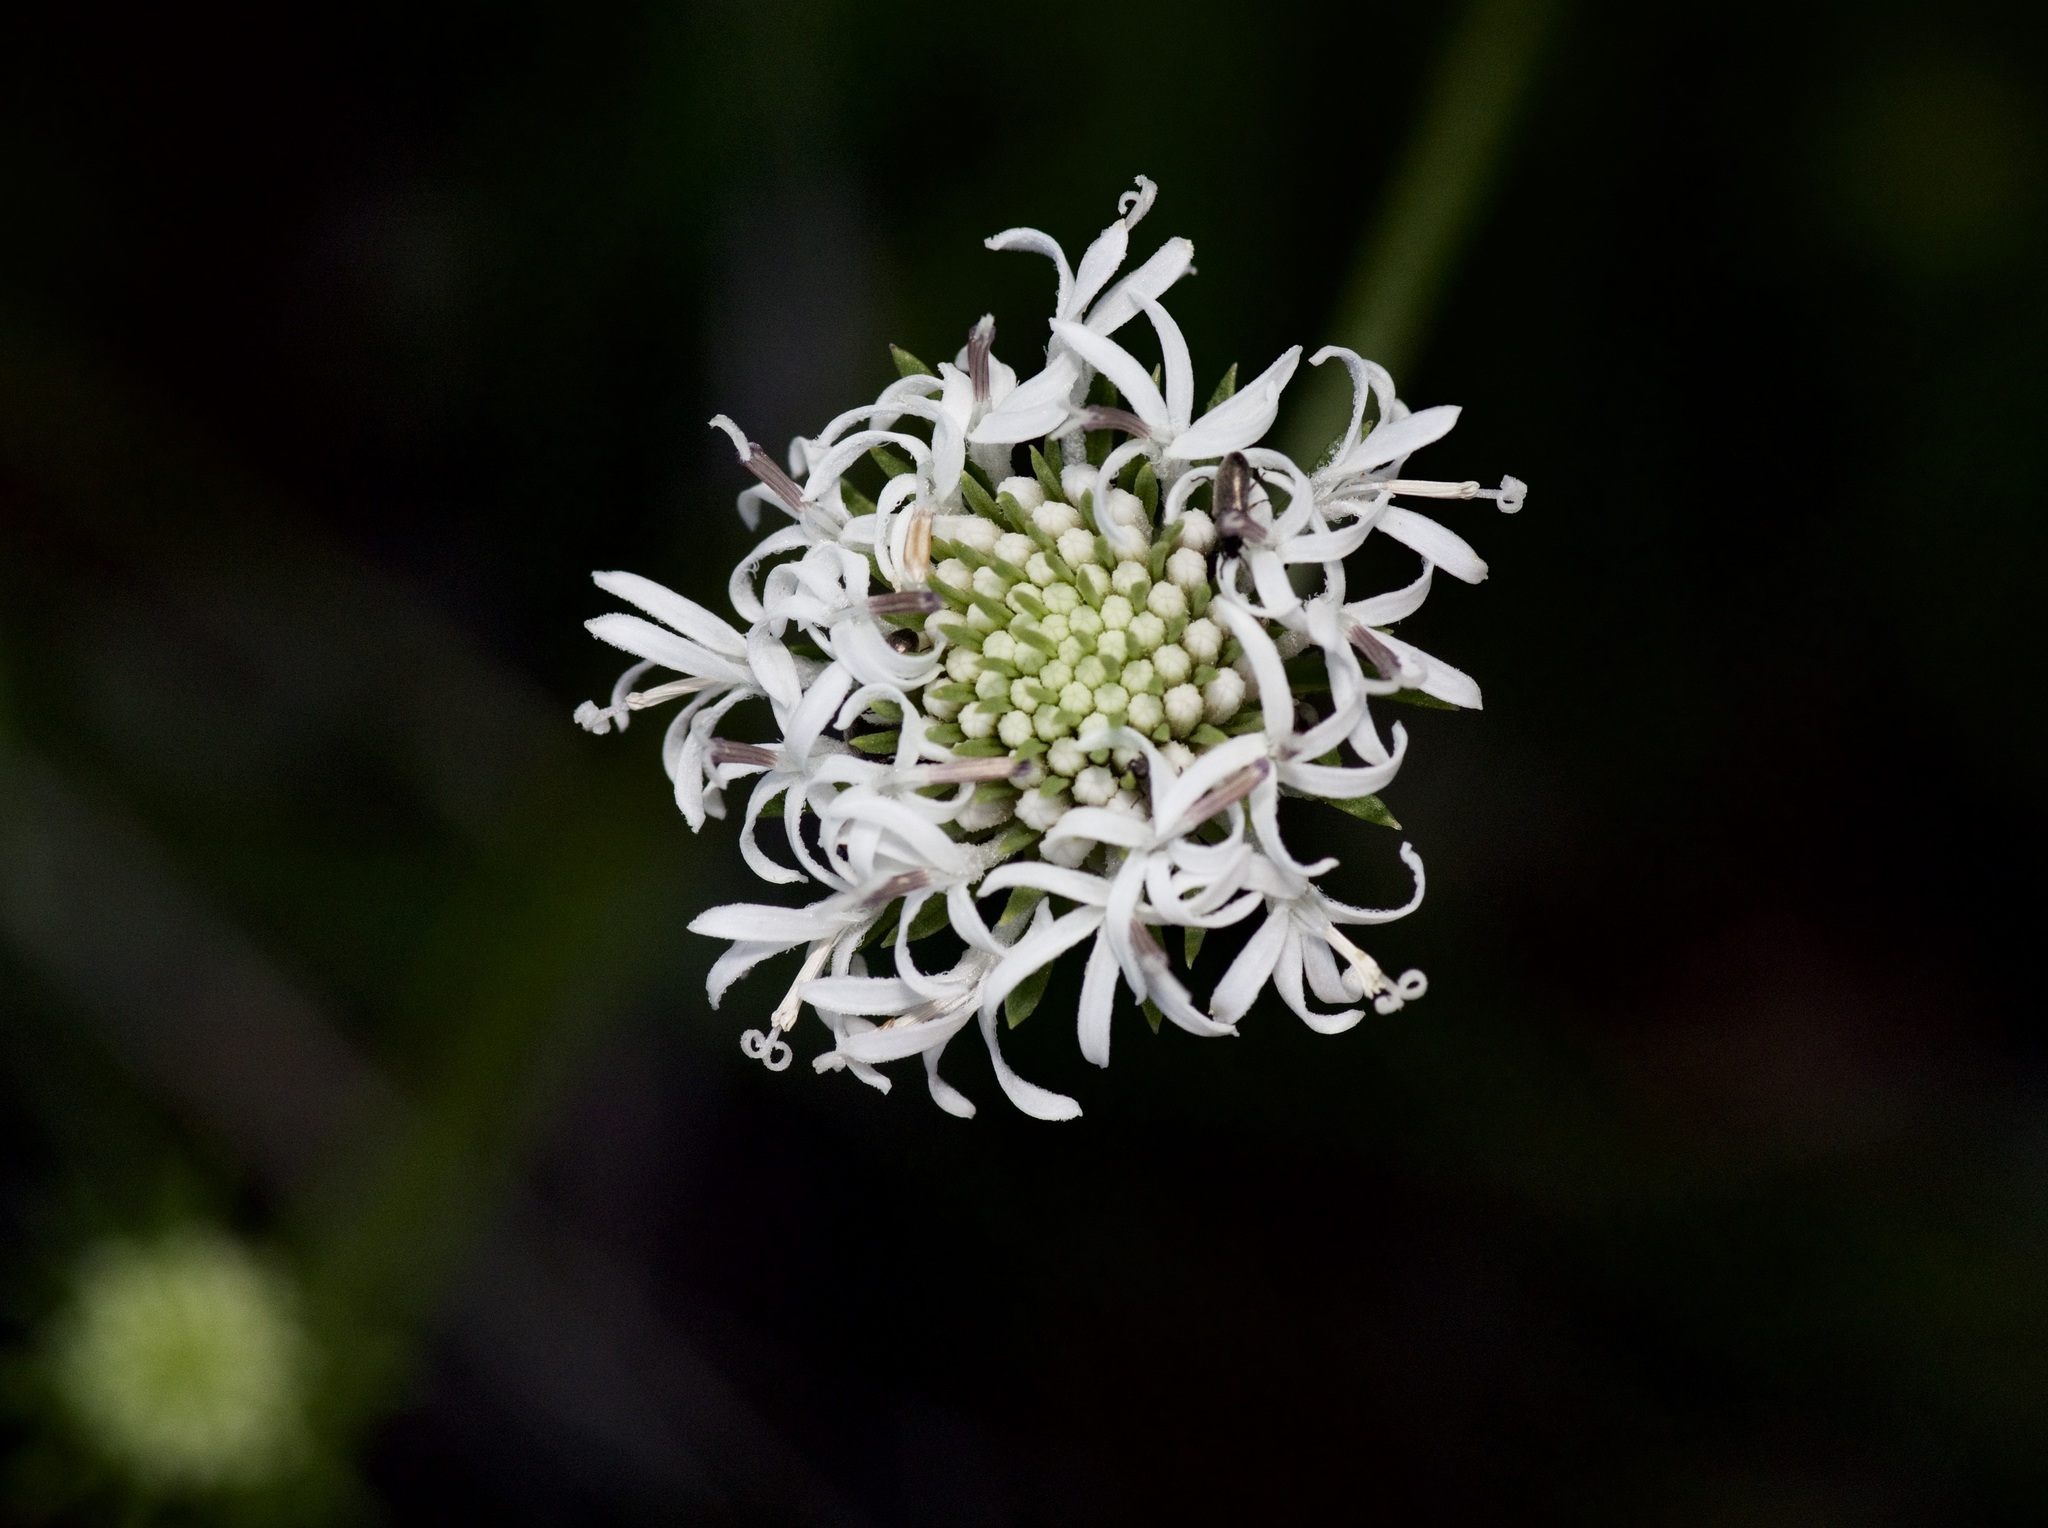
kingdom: Plantae
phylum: Tracheophyta
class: Magnoliopsida
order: Asterales
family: Asteraceae
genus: Marshallia
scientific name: Marshallia caespitosa
